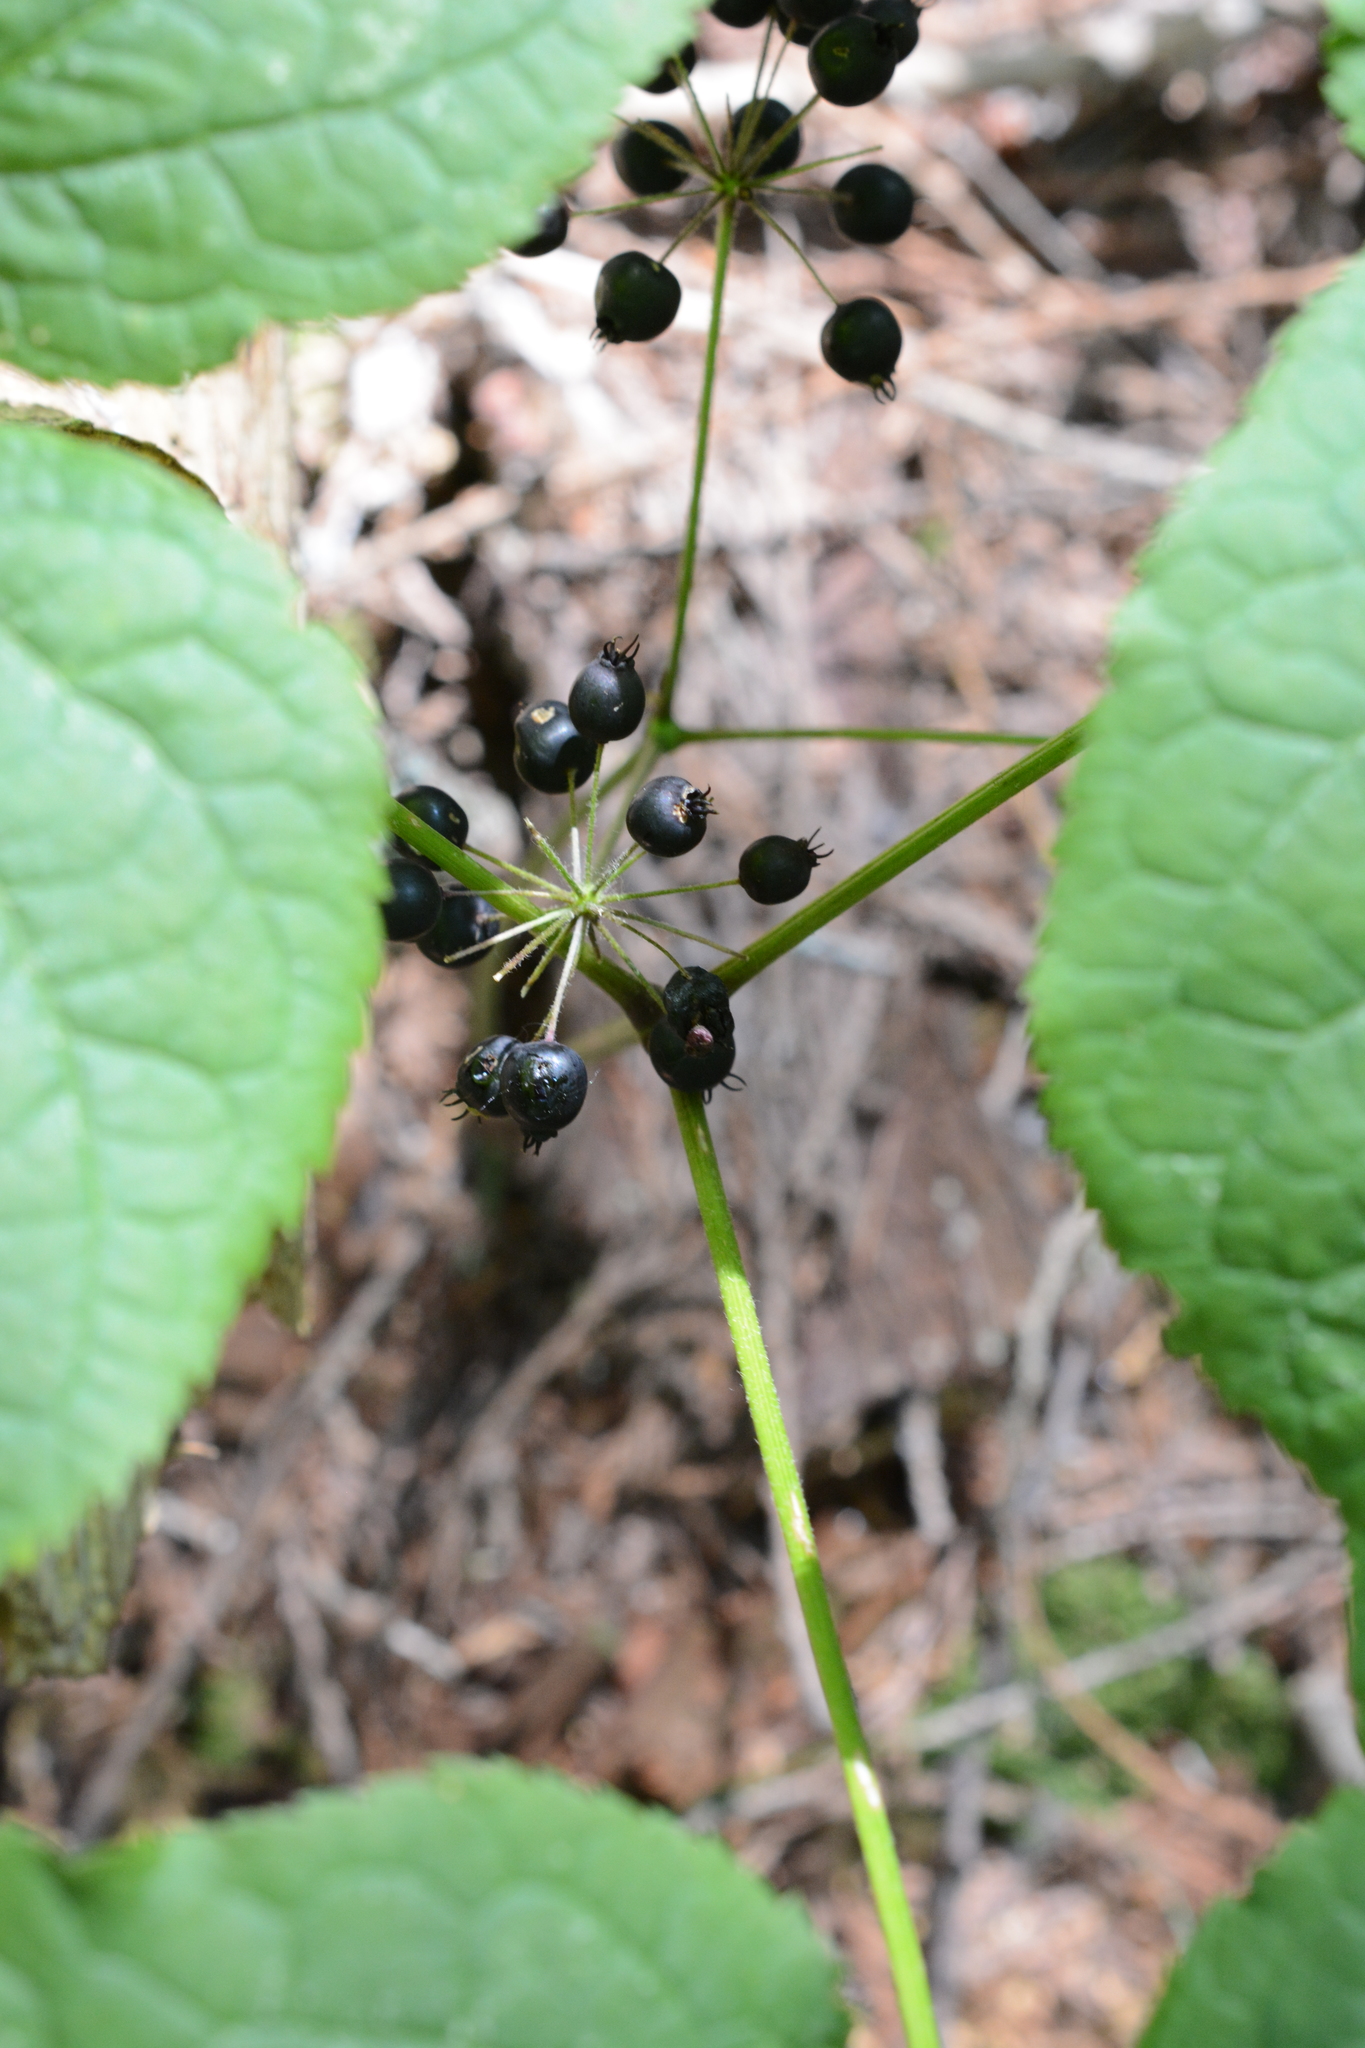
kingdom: Plantae
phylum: Tracheophyta
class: Magnoliopsida
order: Apiales
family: Araliaceae
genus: Aralia
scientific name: Aralia nudicaulis
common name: Wild sarsaparilla
